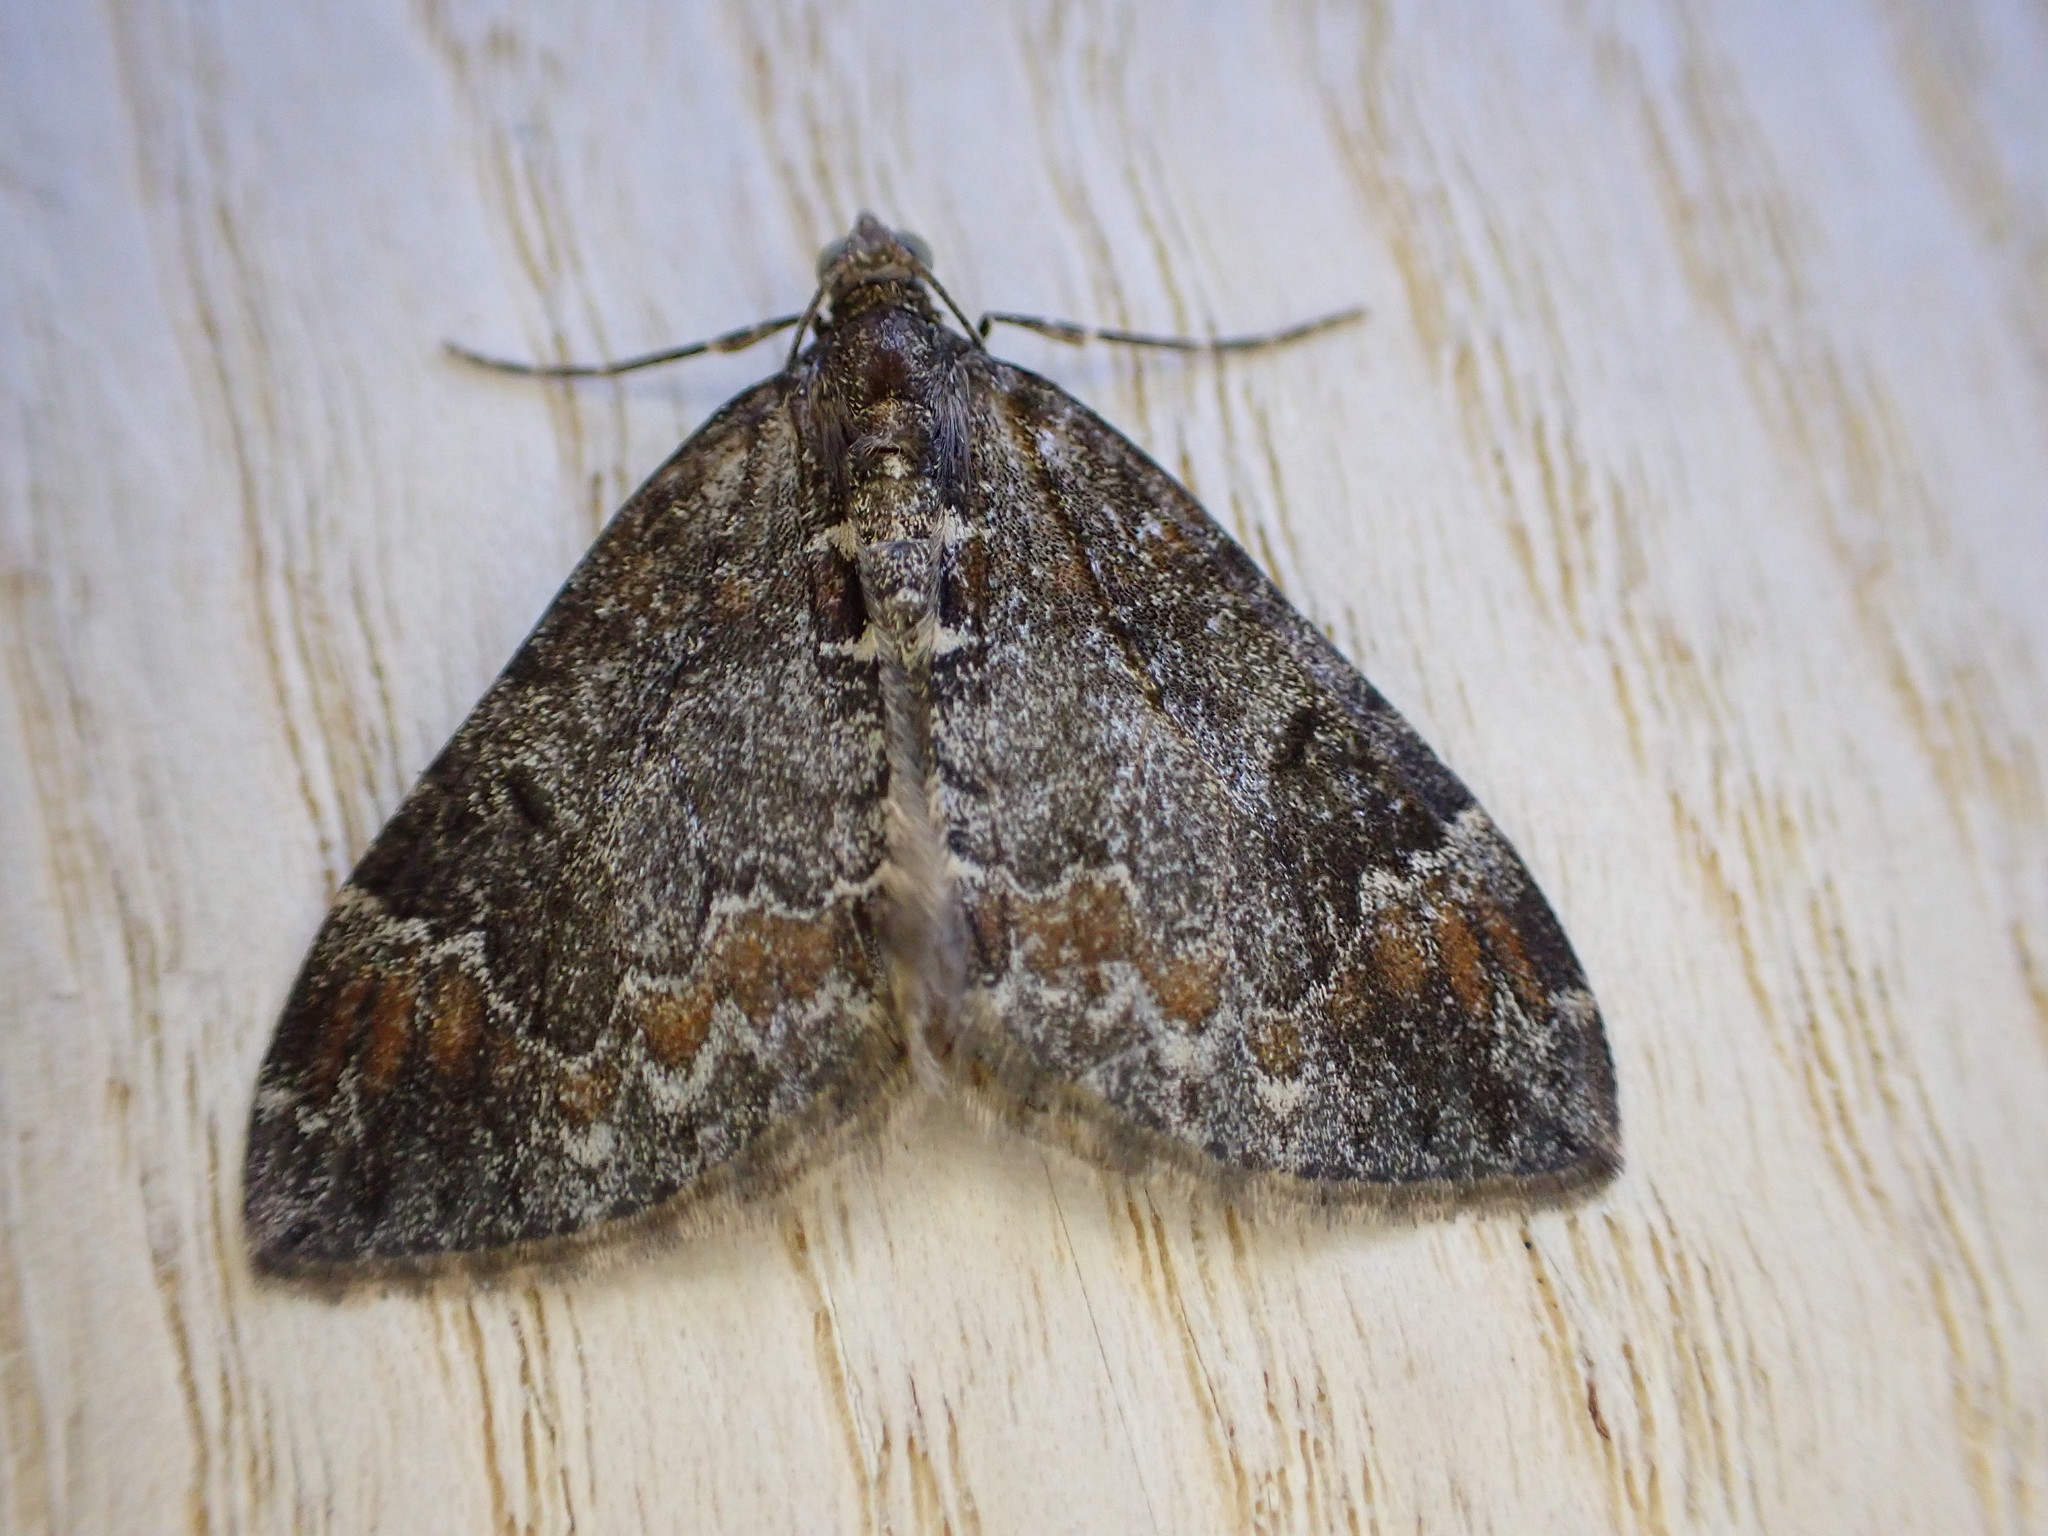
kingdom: Animalia
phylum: Arthropoda
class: Insecta
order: Lepidoptera
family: Geometridae
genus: Dysstroma
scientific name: Dysstroma truncata
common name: Common marbled carpet
